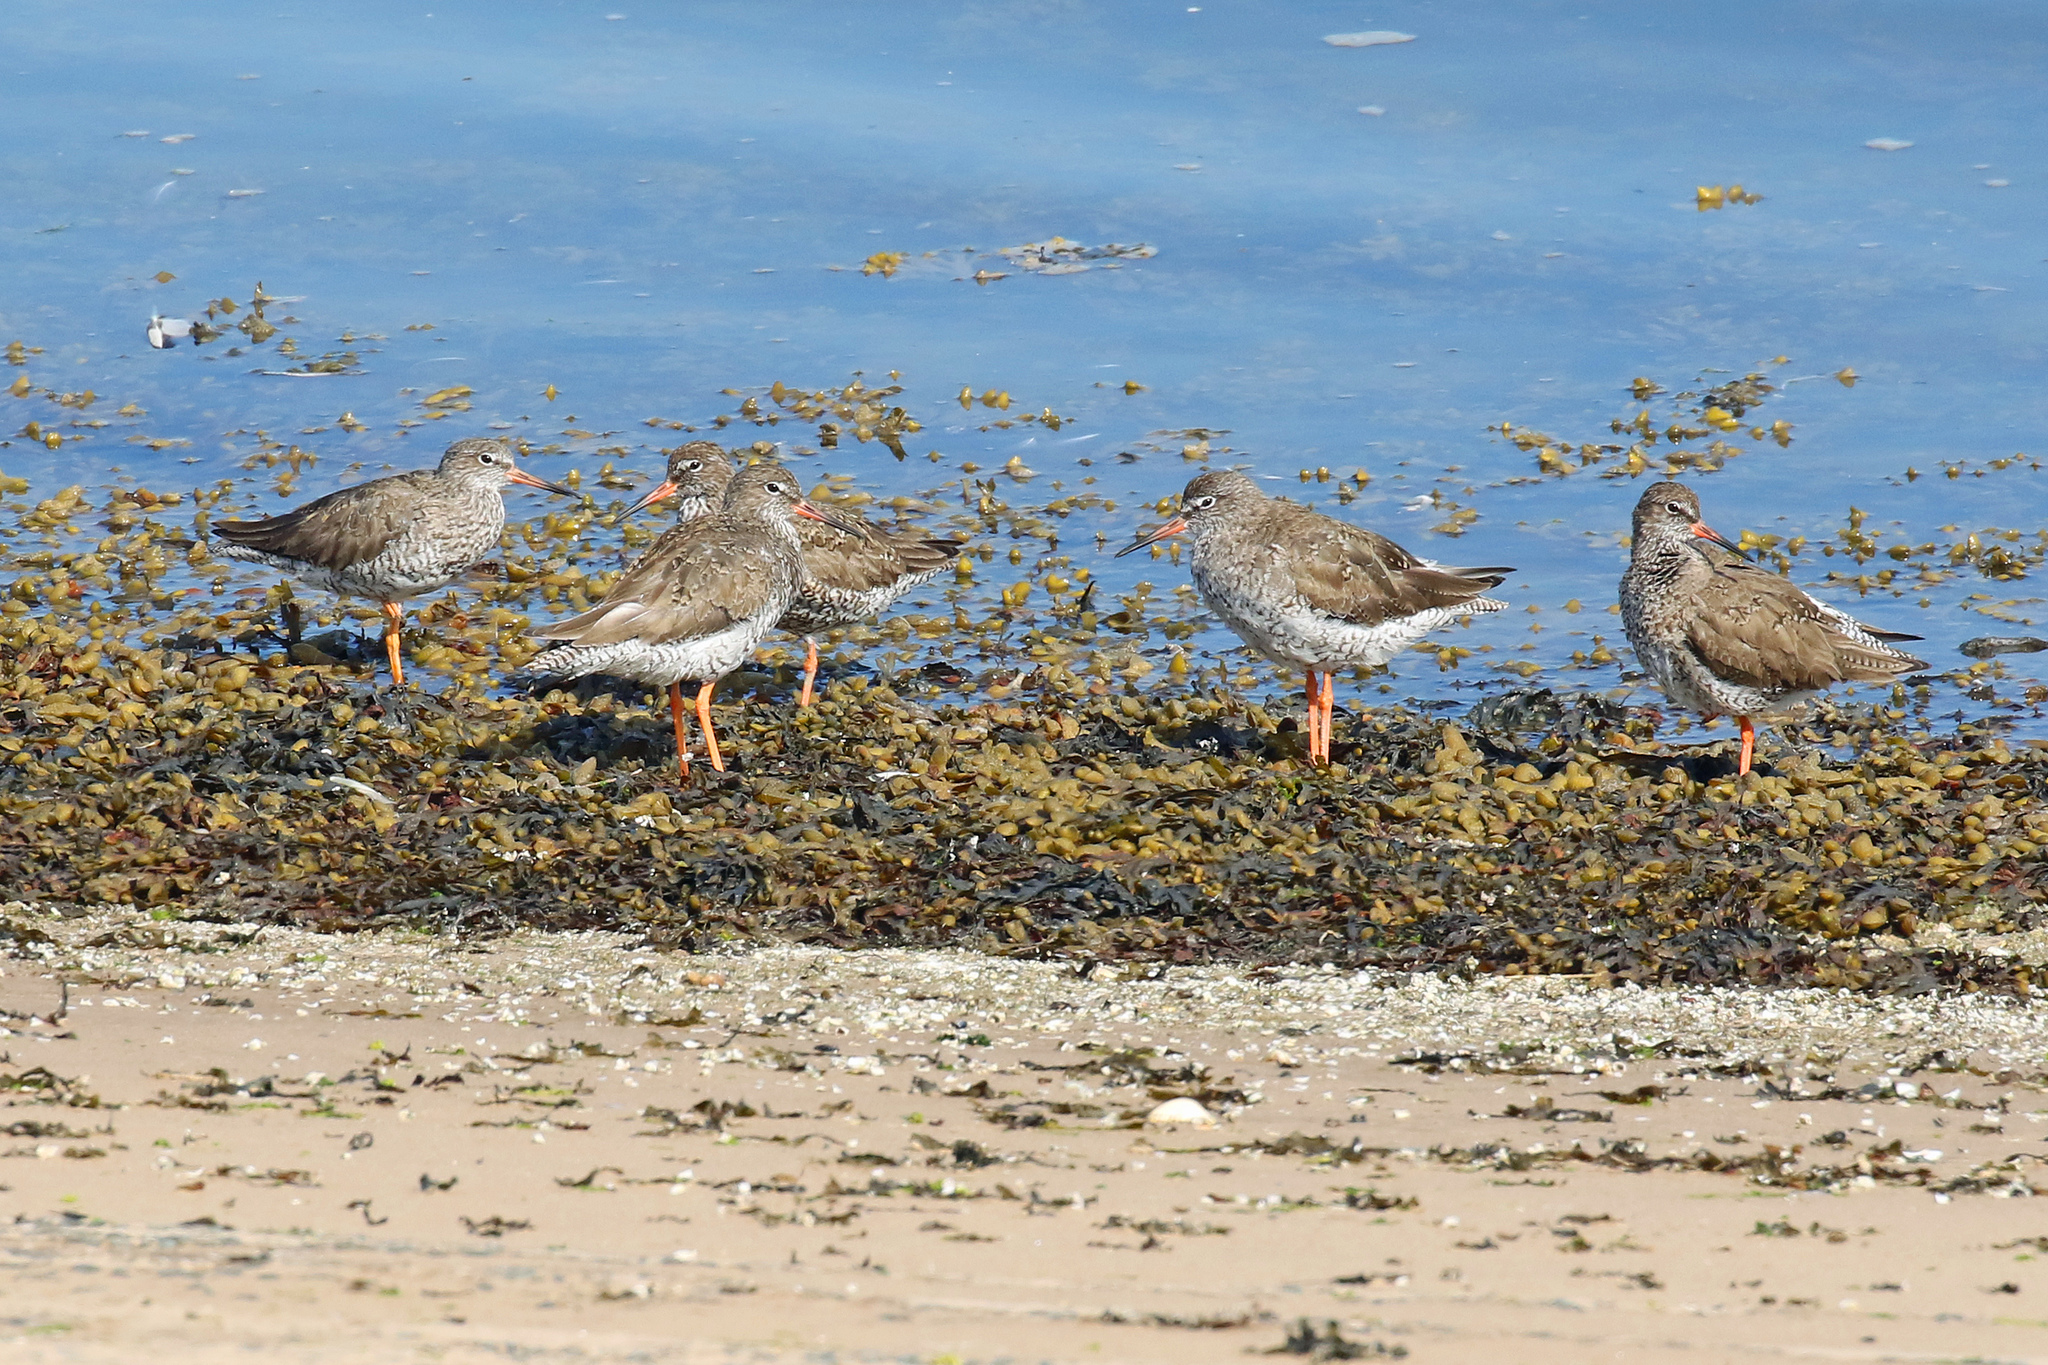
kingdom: Animalia
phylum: Chordata
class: Aves
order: Charadriiformes
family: Scolopacidae
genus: Tringa
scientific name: Tringa totanus
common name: Common redshank
